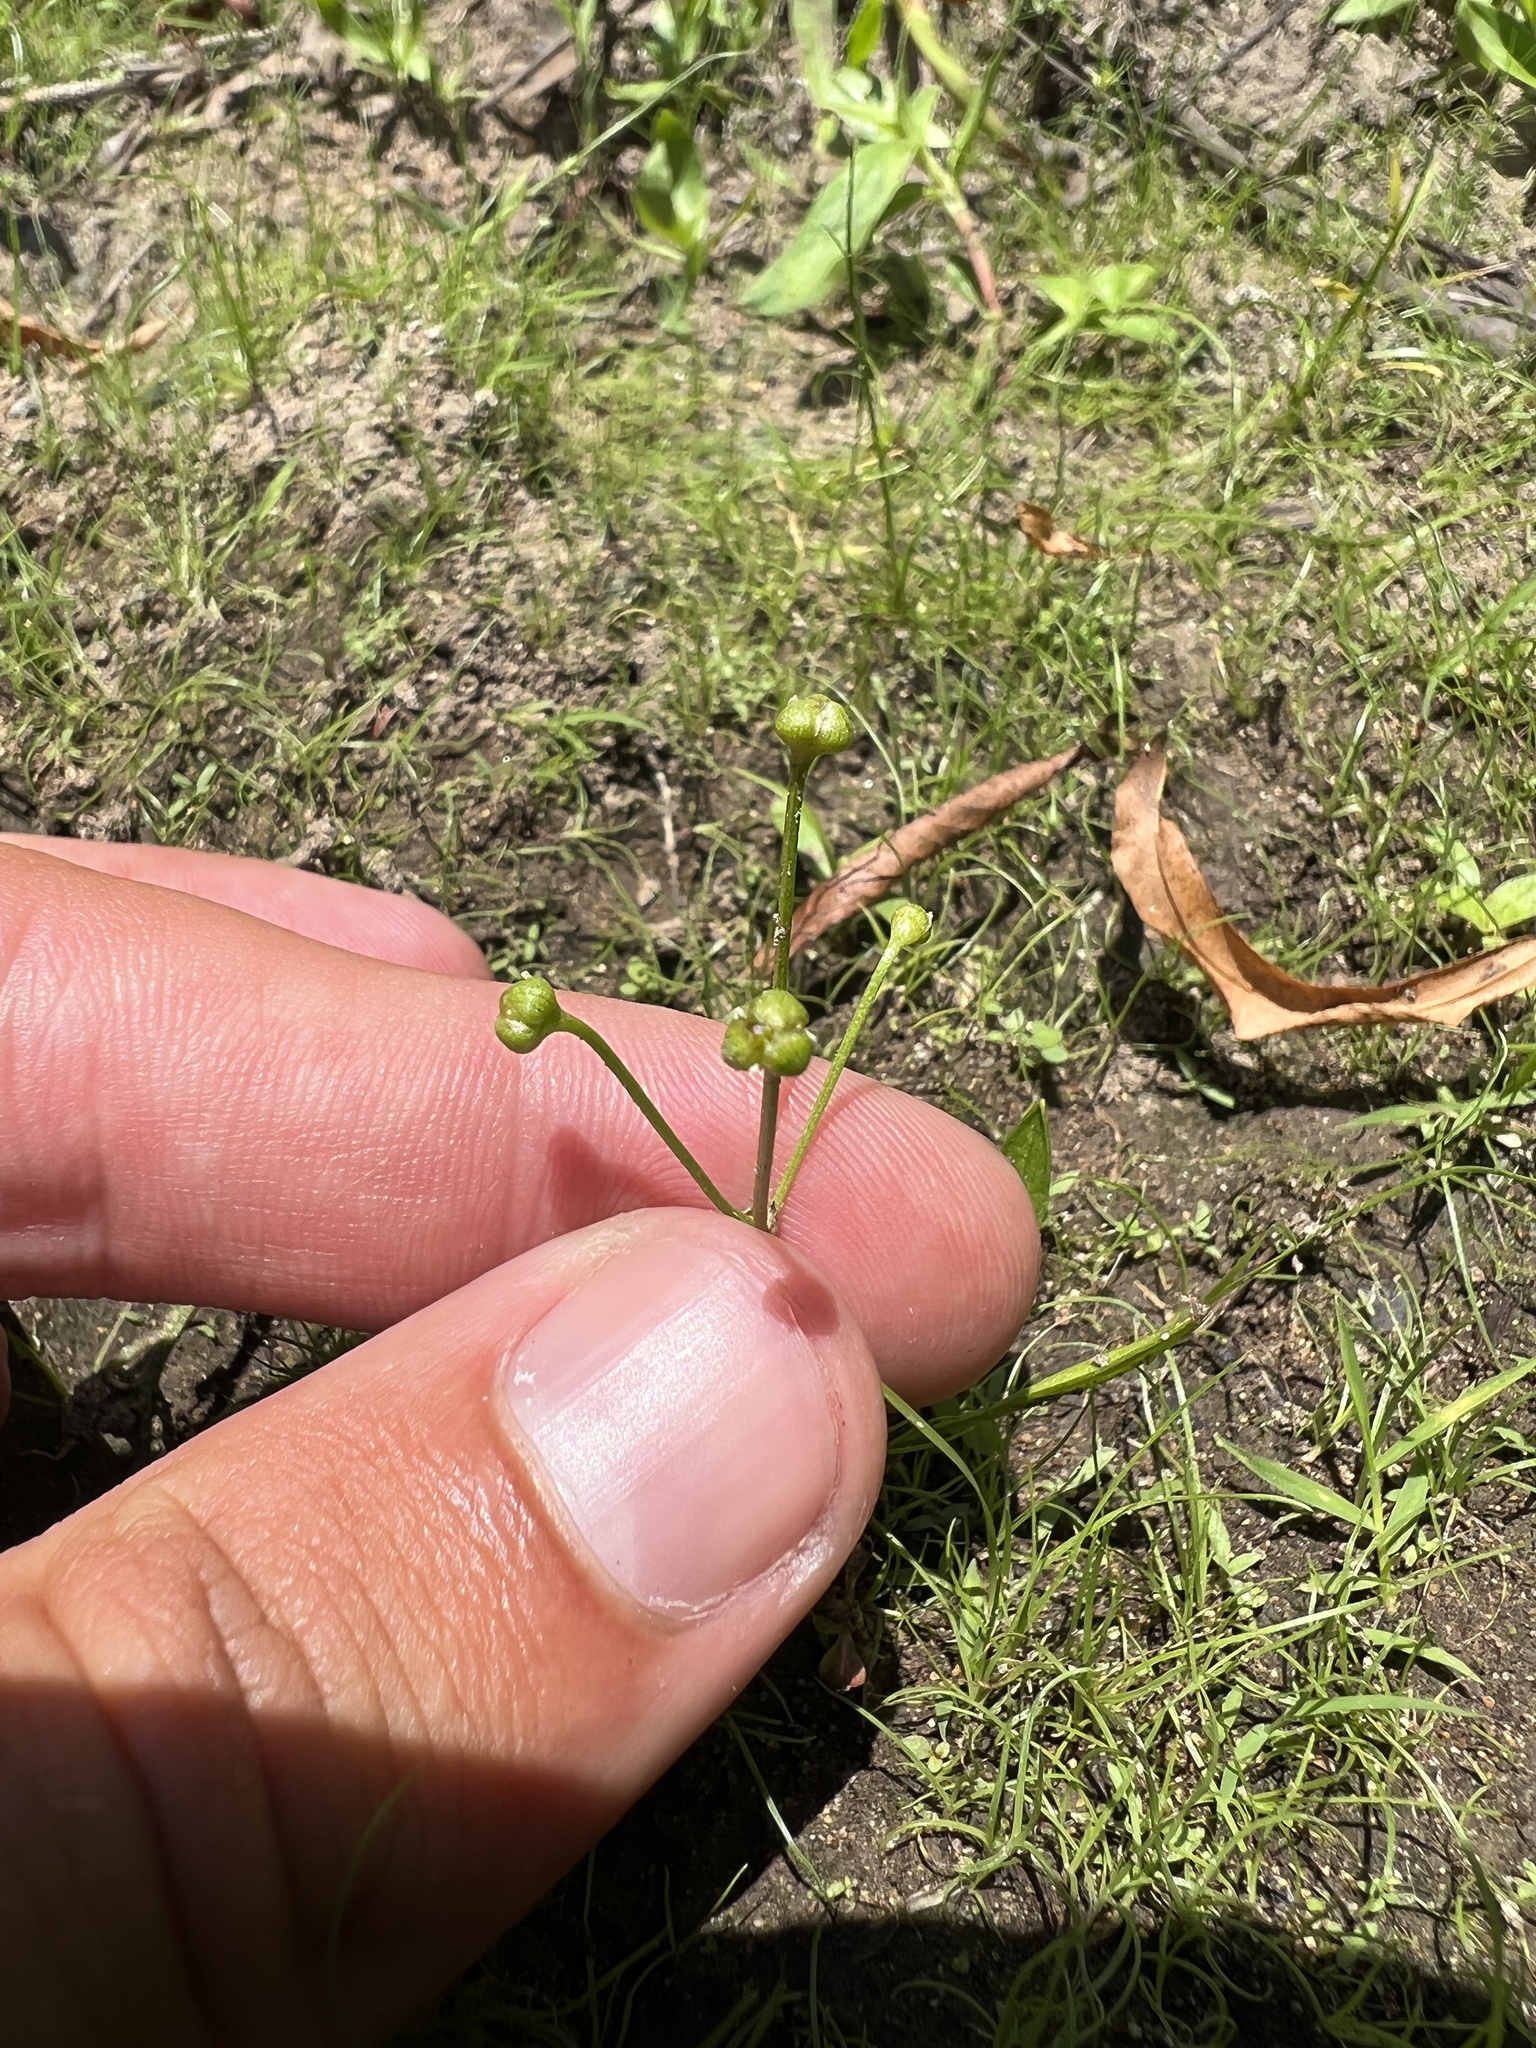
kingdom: Plantae
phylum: Tracheophyta
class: Liliopsida
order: Alismatales
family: Alismataceae
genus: Helanthium
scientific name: Helanthium tenellum
